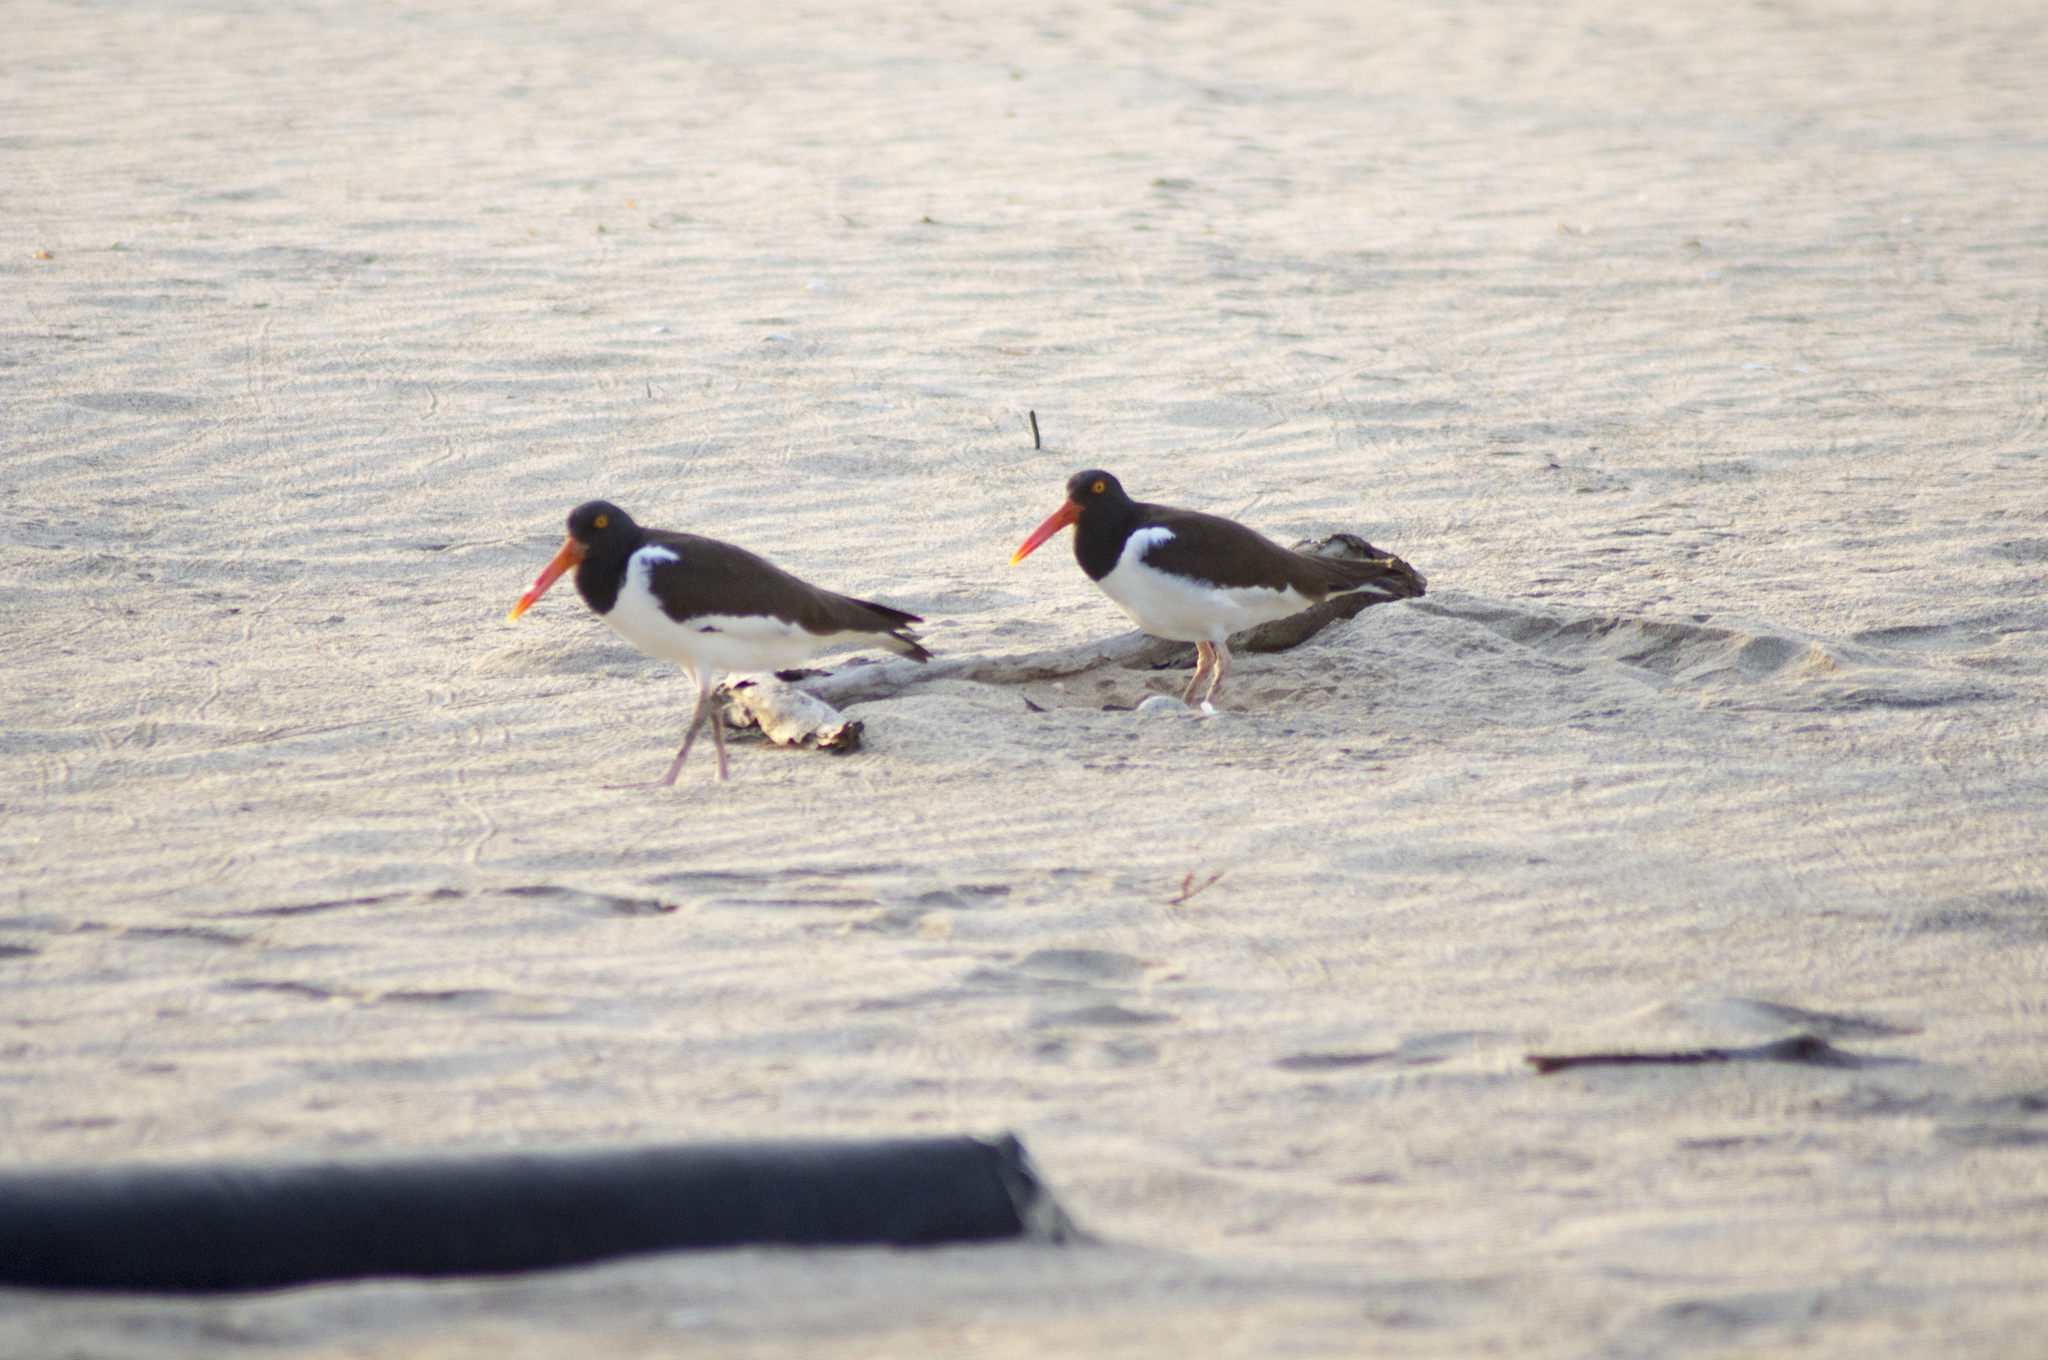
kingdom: Animalia
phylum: Chordata
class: Aves
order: Charadriiformes
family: Haematopodidae
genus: Haematopus
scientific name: Haematopus palliatus
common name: American oystercatcher
